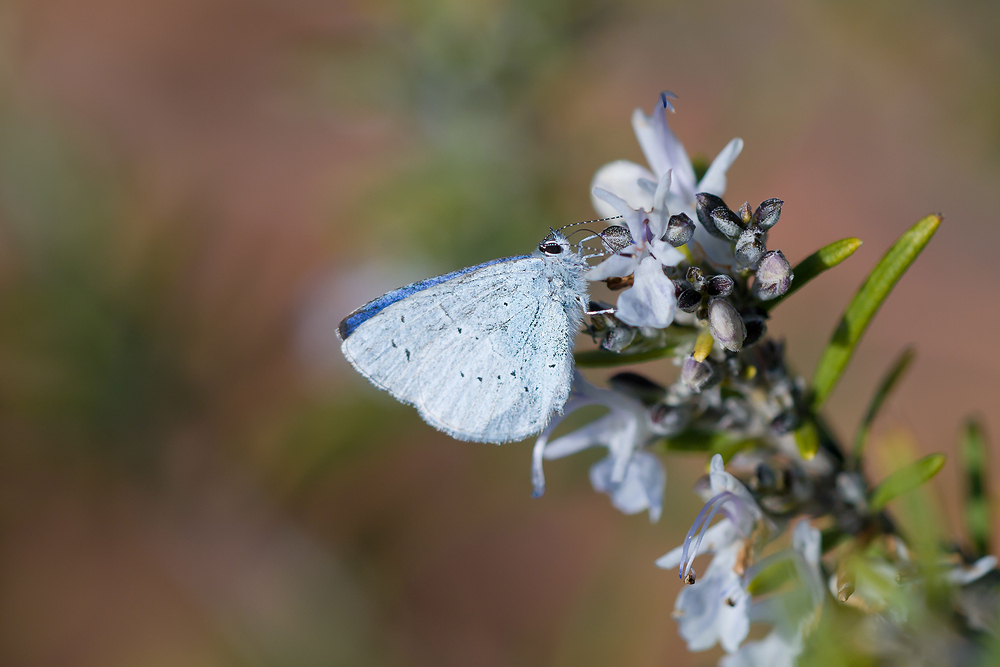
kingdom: Animalia
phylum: Arthropoda
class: Insecta
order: Lepidoptera
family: Lycaenidae
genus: Celastrina
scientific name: Celastrina argiolus
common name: Holly blue
